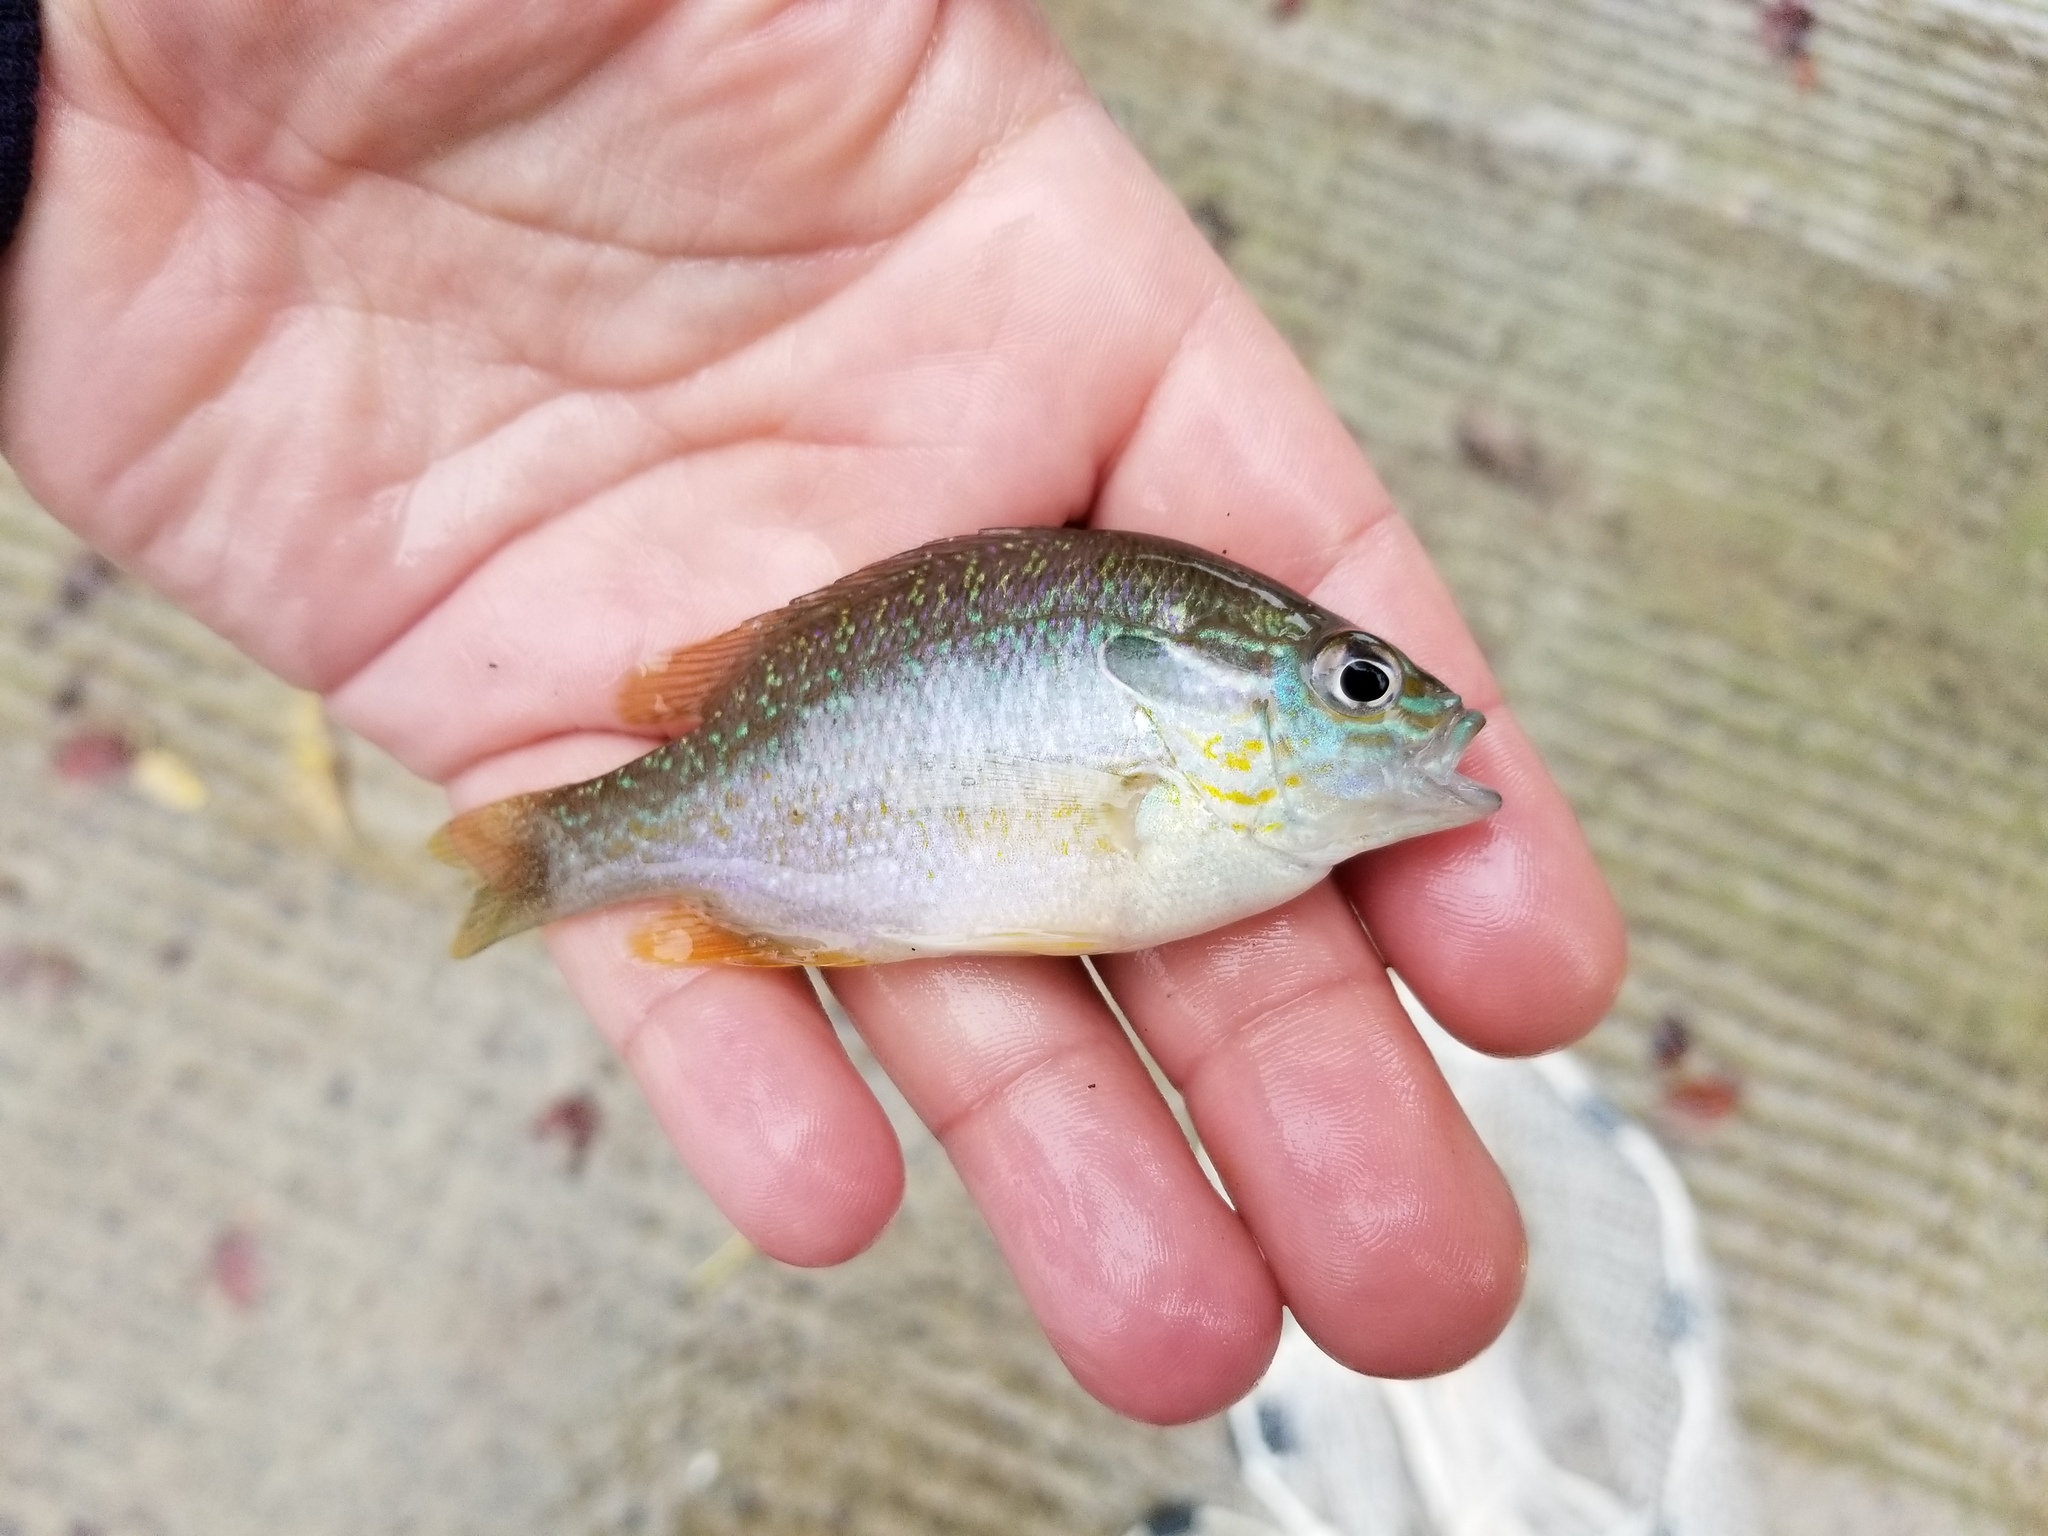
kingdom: Animalia
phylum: Chordata
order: Perciformes
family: Centrarchidae
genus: Lepomis
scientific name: Lepomis megalotis
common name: Longear sunfish
